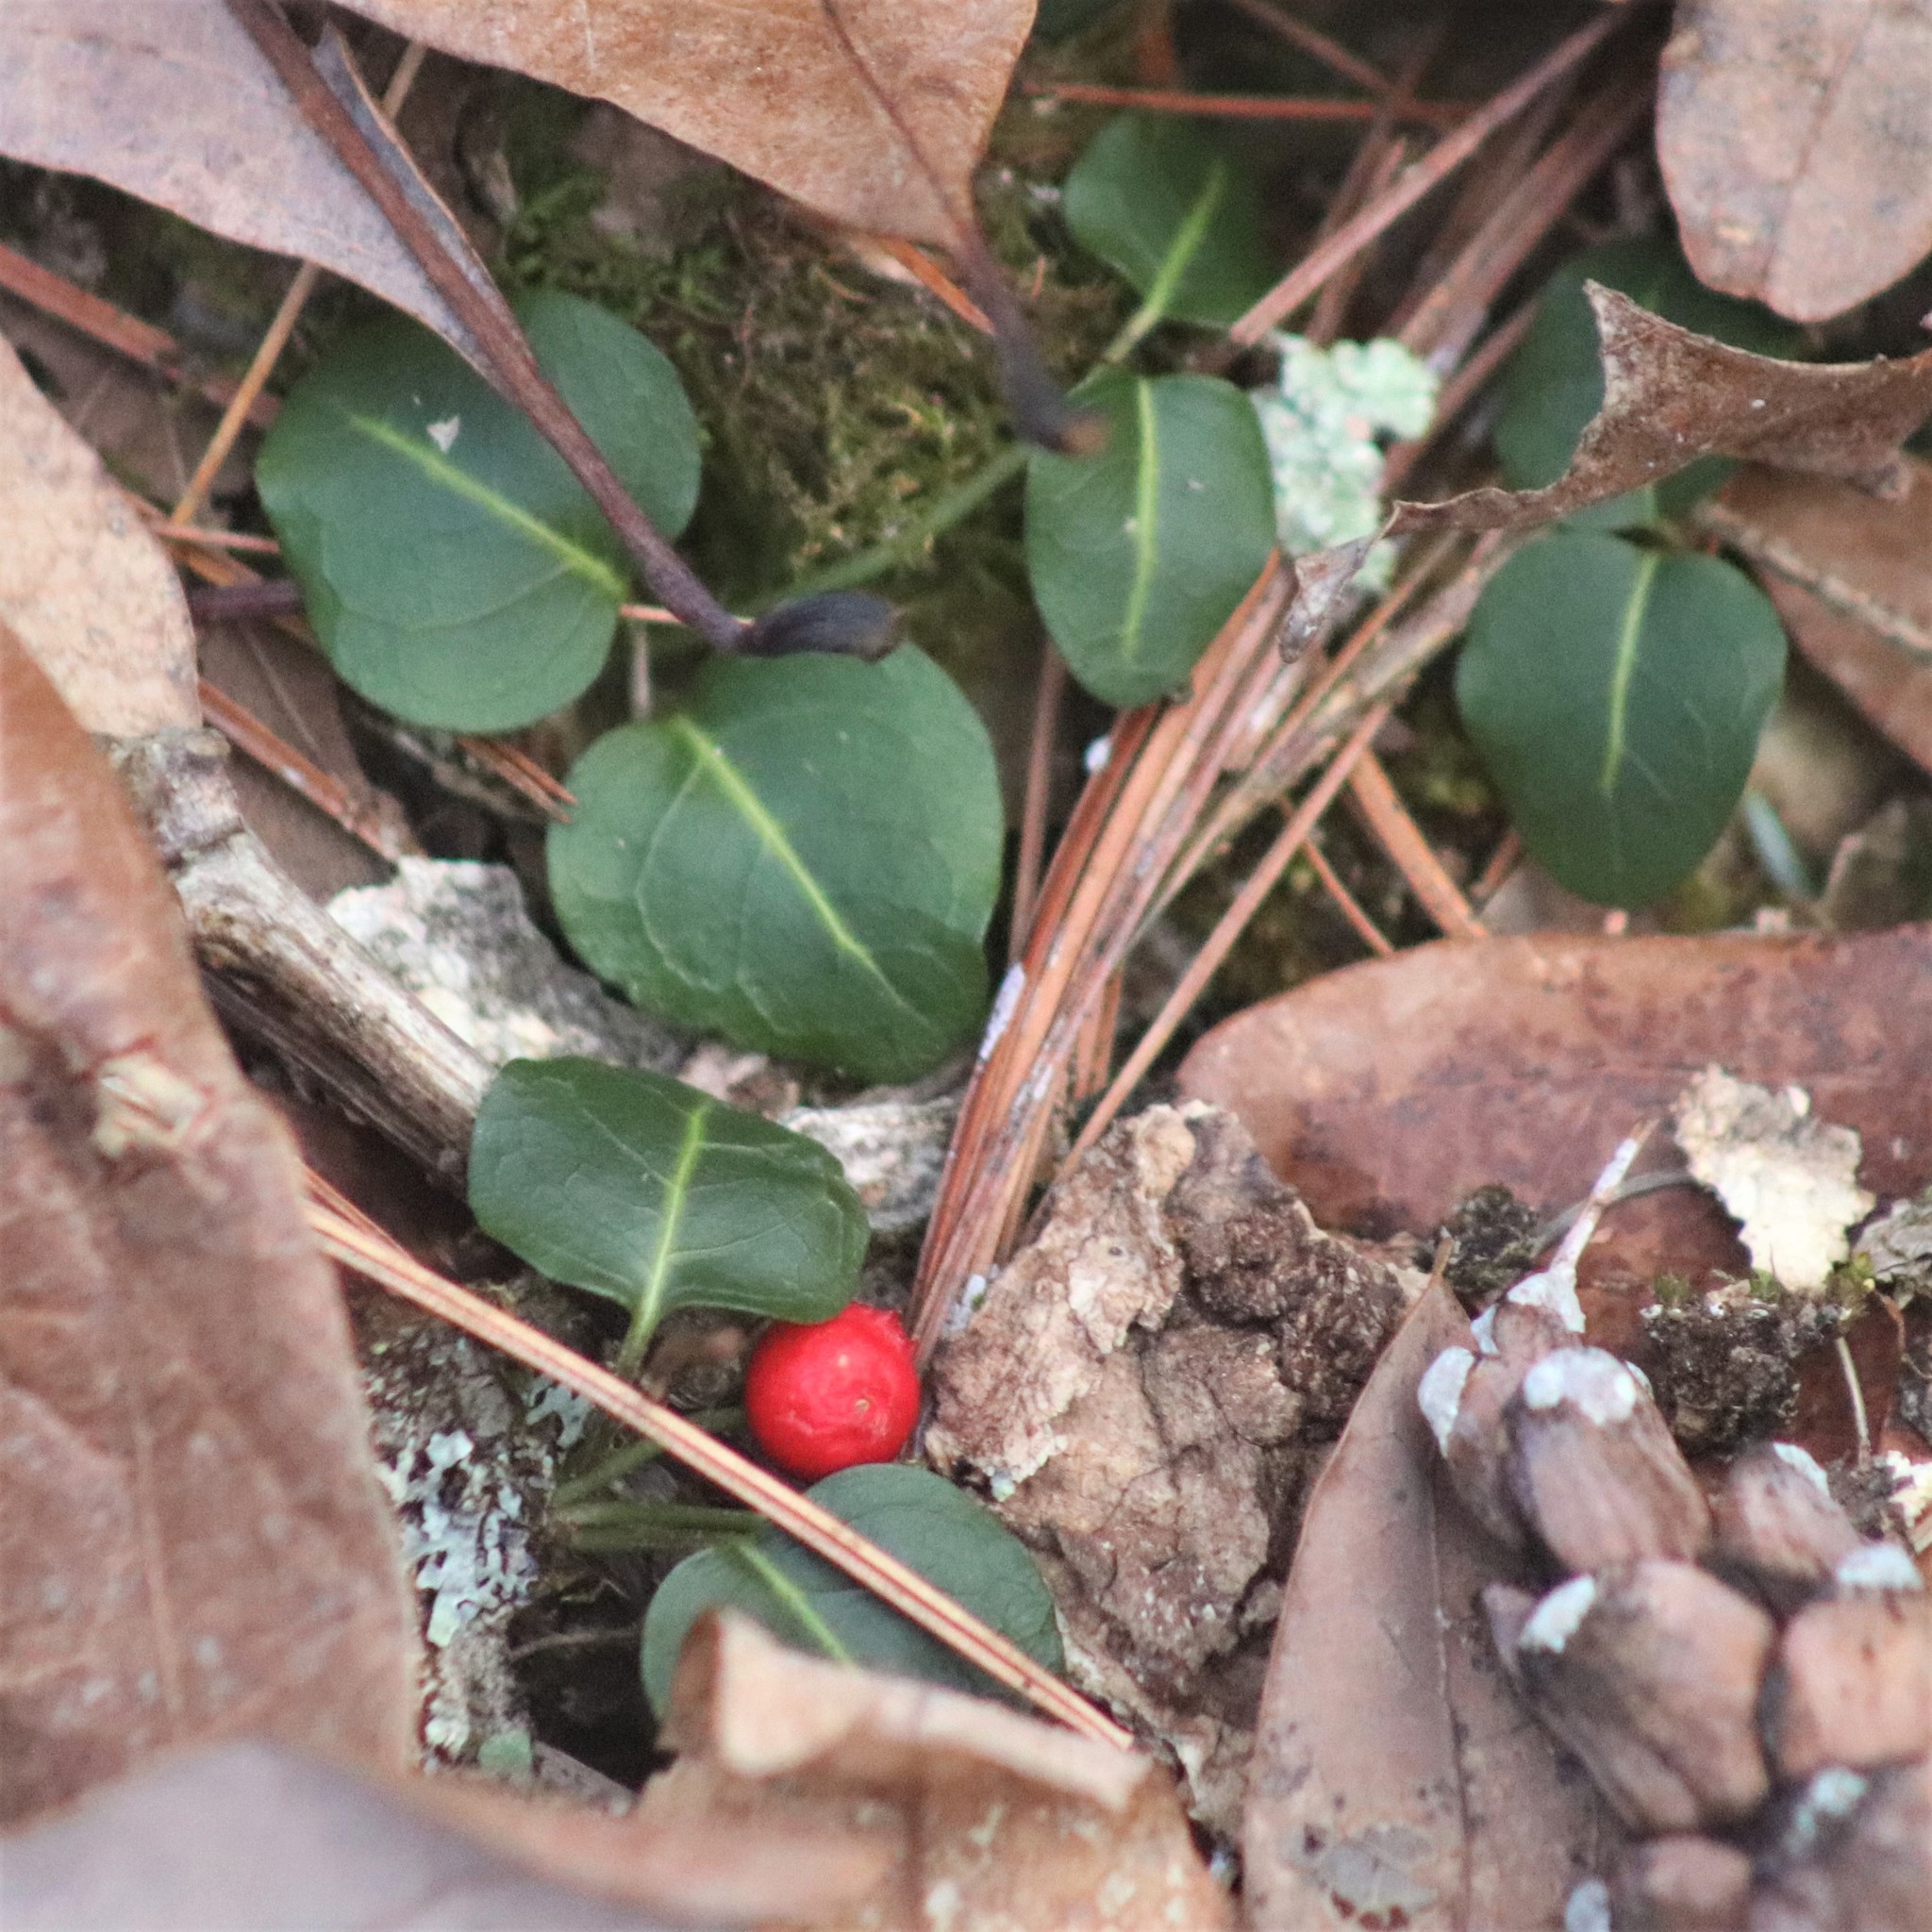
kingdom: Plantae
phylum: Tracheophyta
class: Magnoliopsida
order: Gentianales
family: Rubiaceae
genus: Mitchella
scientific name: Mitchella repens
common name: Partridge-berry
